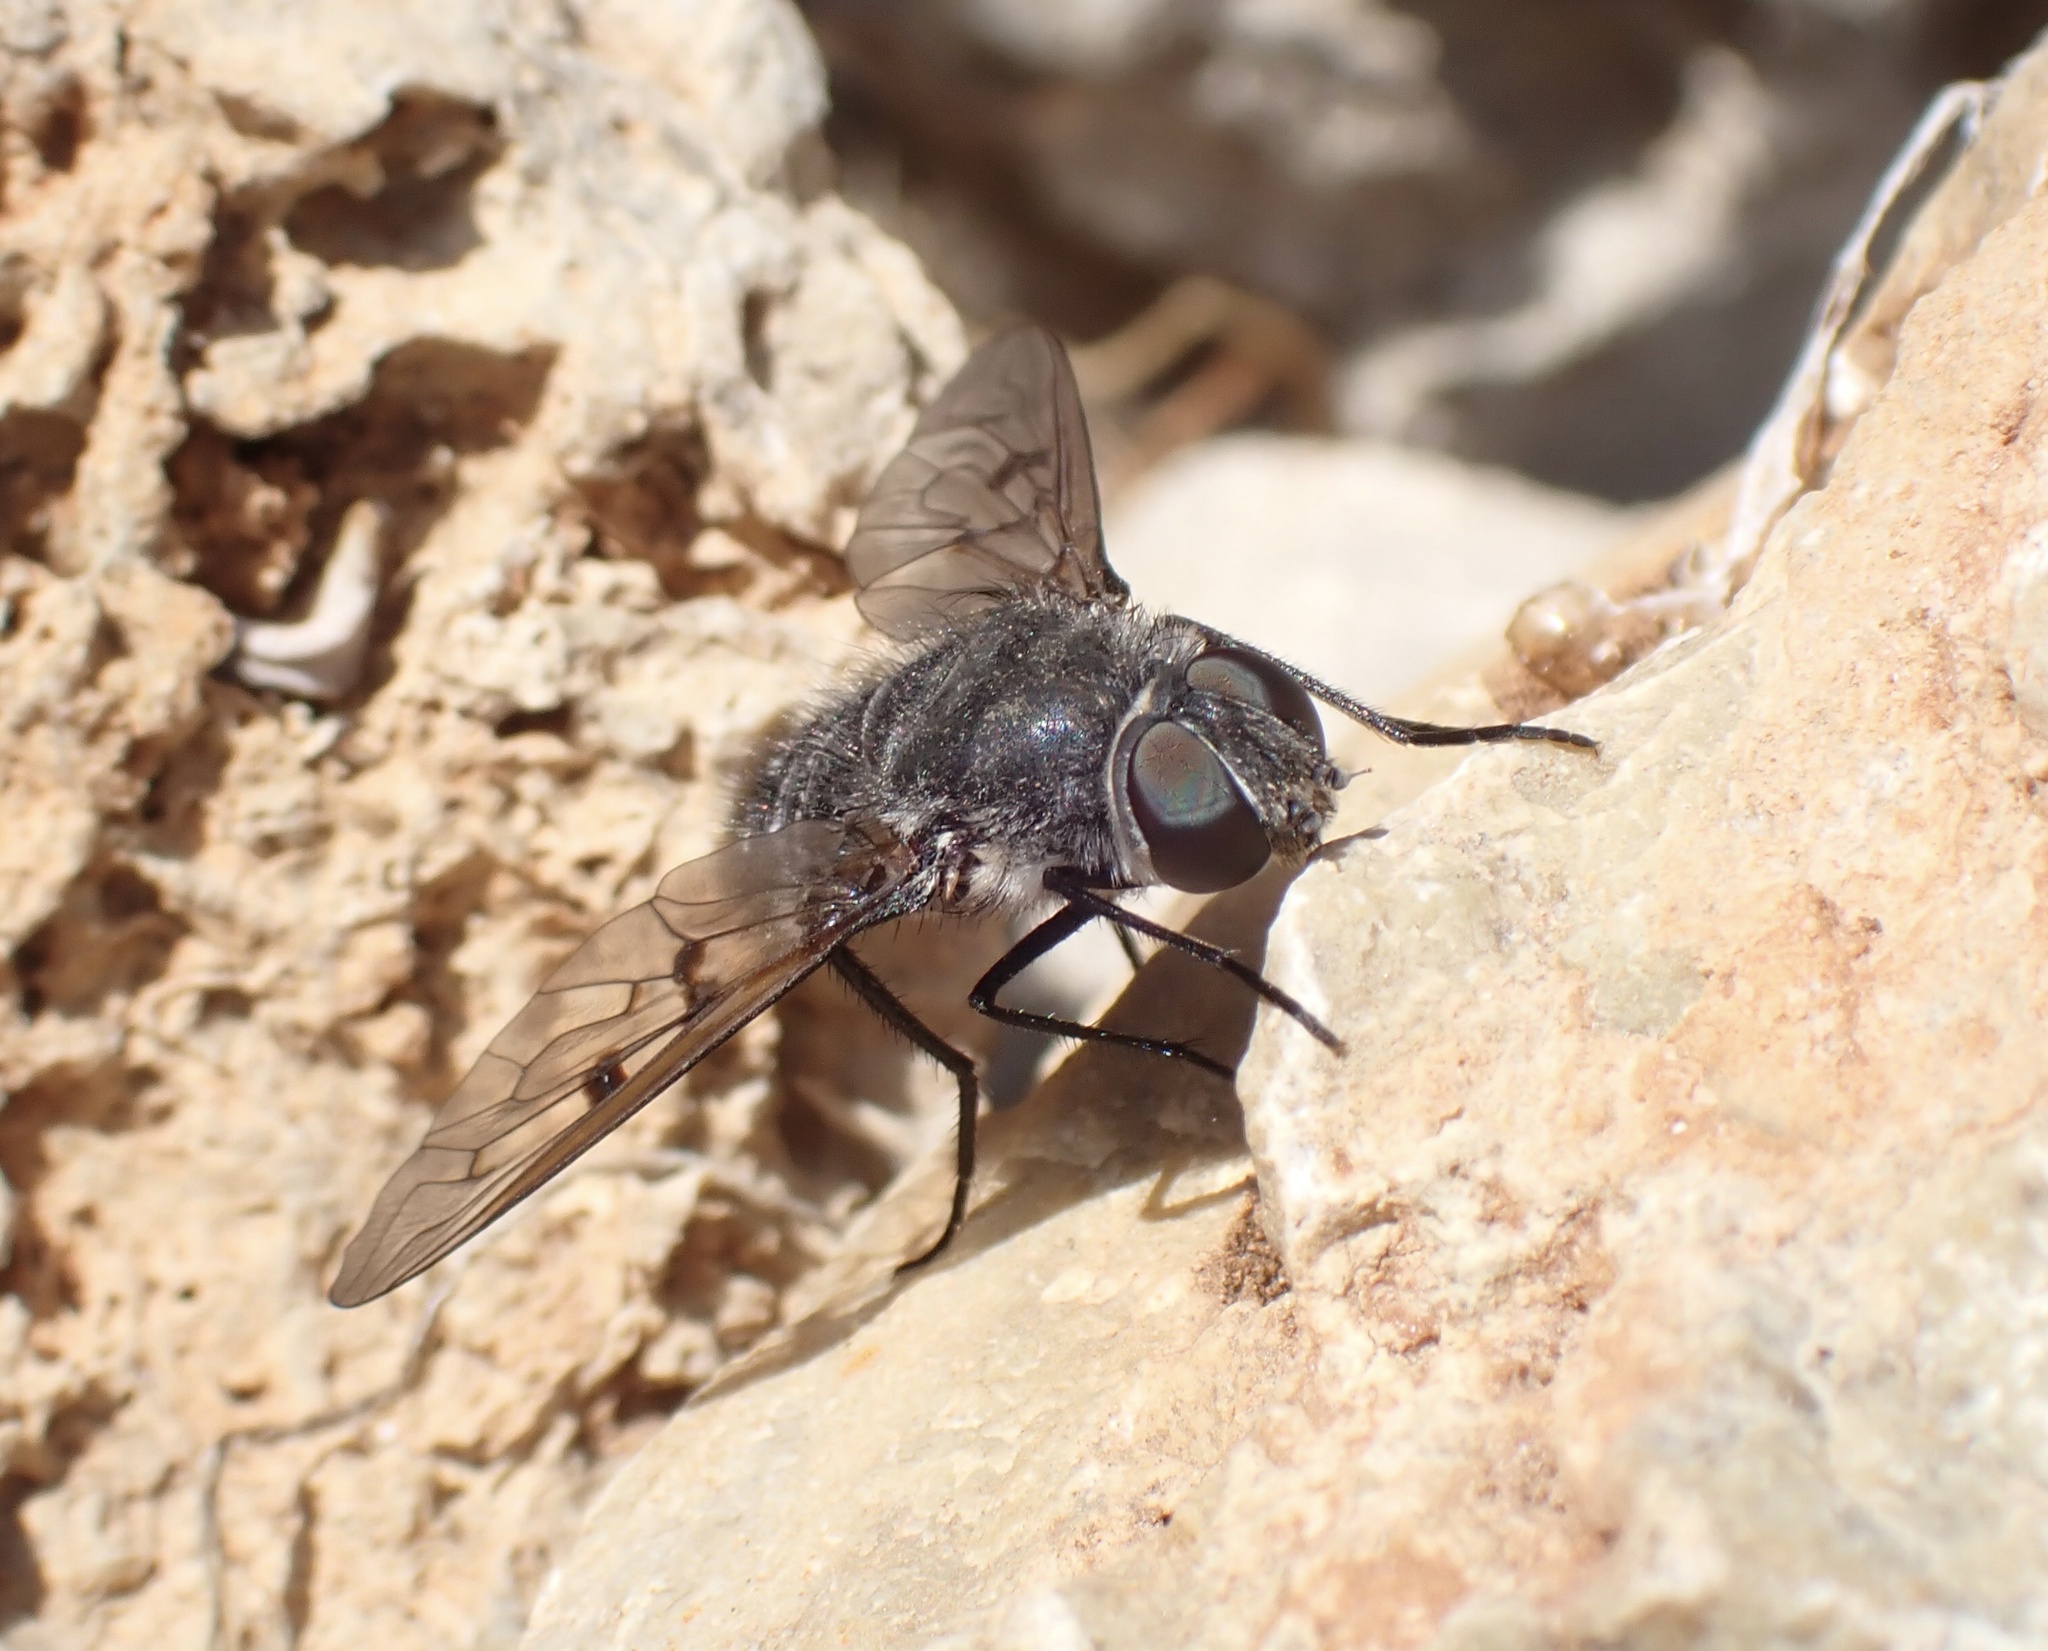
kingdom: Animalia
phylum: Arthropoda
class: Insecta
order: Diptera
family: Bombyliidae
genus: Spogostylum
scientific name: Spogostylum tripunctatum
